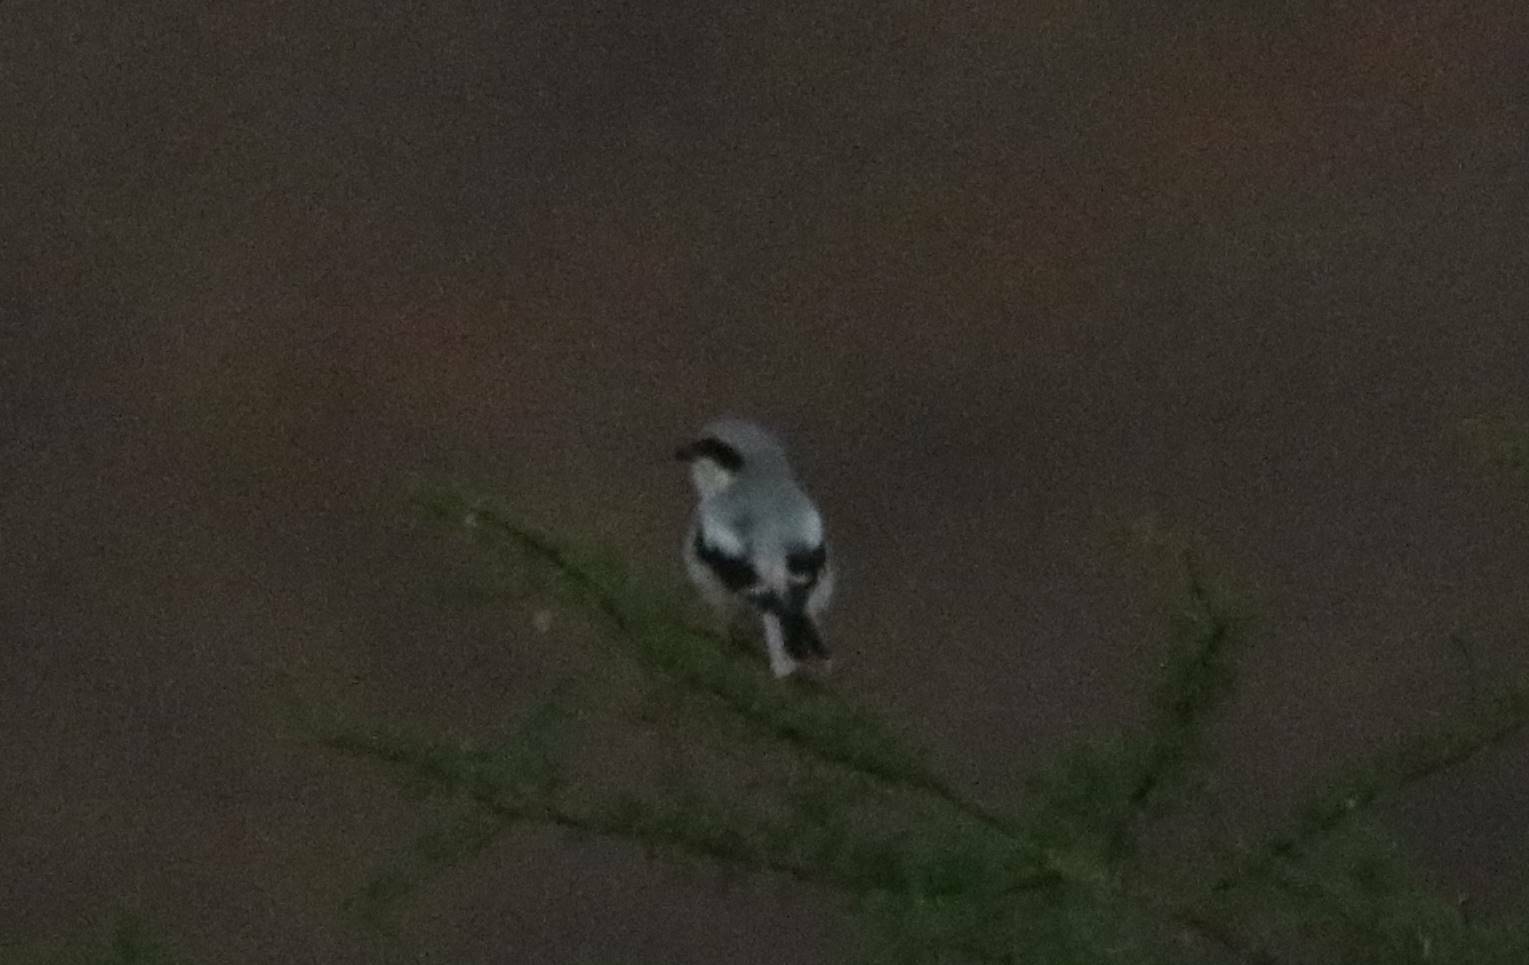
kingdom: Animalia
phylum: Chordata
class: Aves
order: Passeriformes
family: Laniidae
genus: Lanius
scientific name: Lanius excubitor
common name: Great grey shrike
